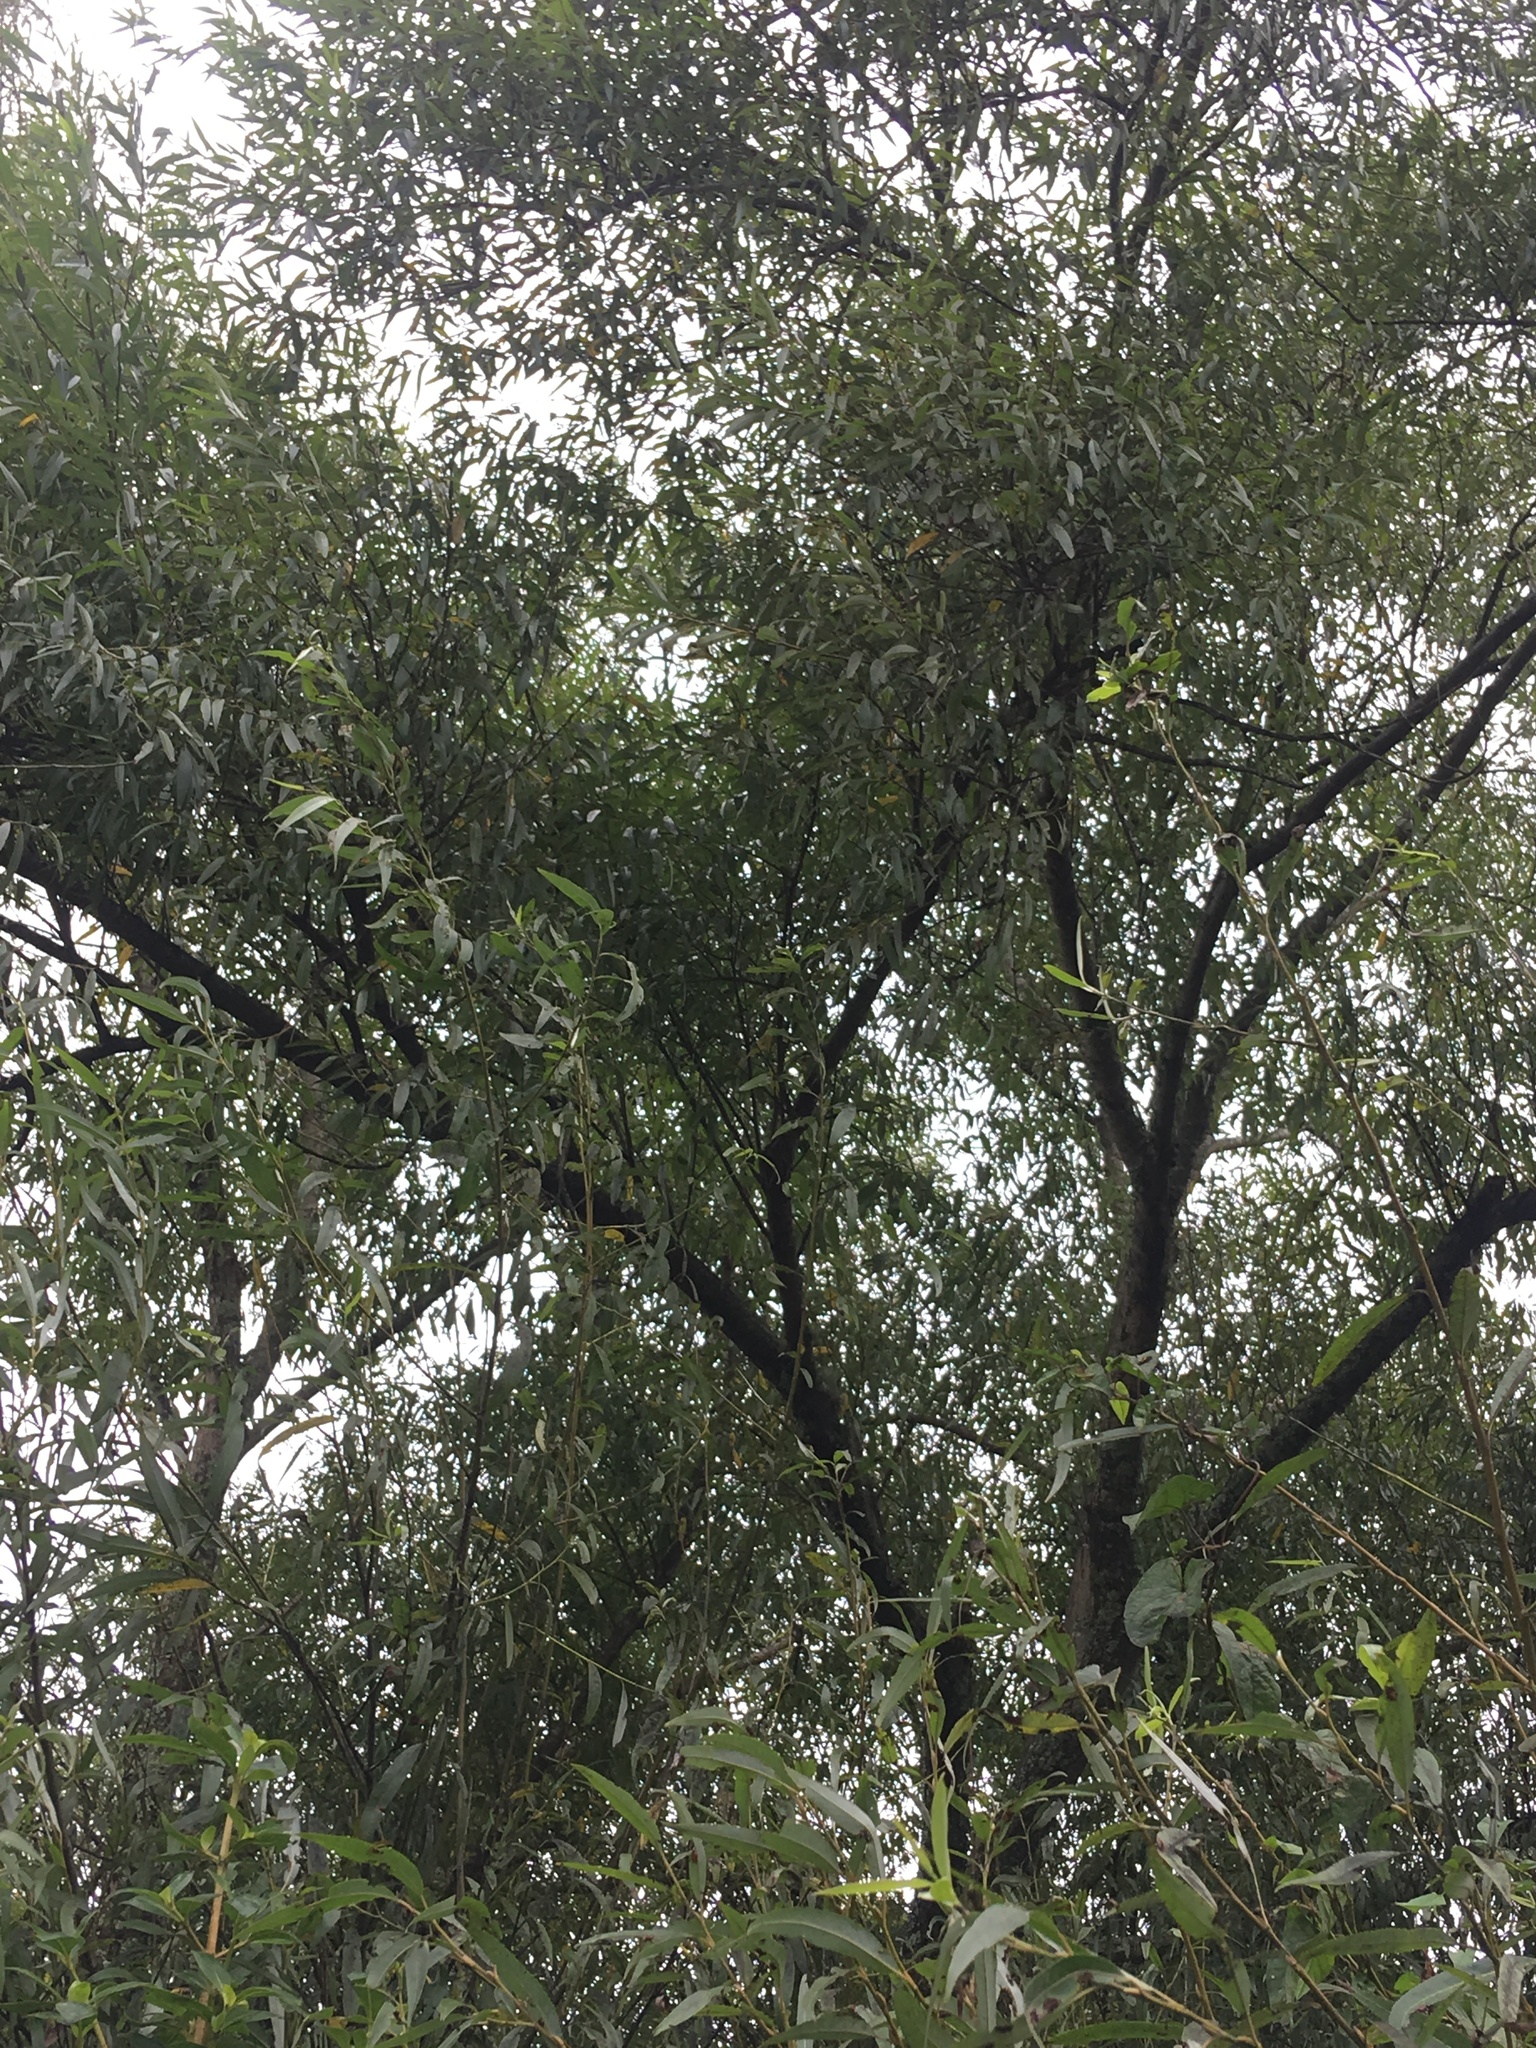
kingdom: Plantae
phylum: Tracheophyta
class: Magnoliopsida
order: Malpighiales
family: Salicaceae
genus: Salix
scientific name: Salix fragilis
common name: Crack willow
